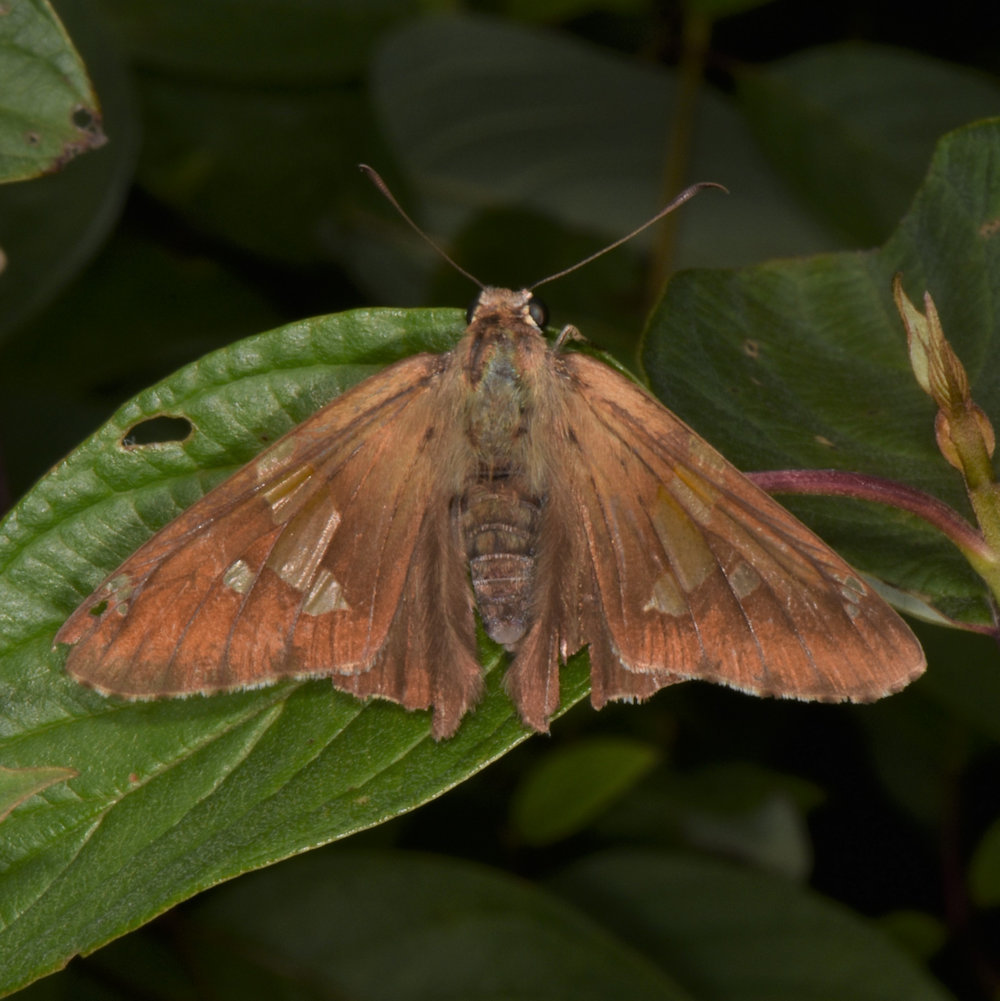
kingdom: Animalia
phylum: Arthropoda
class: Insecta
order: Lepidoptera
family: Hesperiidae
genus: Epargyreus
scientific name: Epargyreus clarus
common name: Silver-spotted skipper
